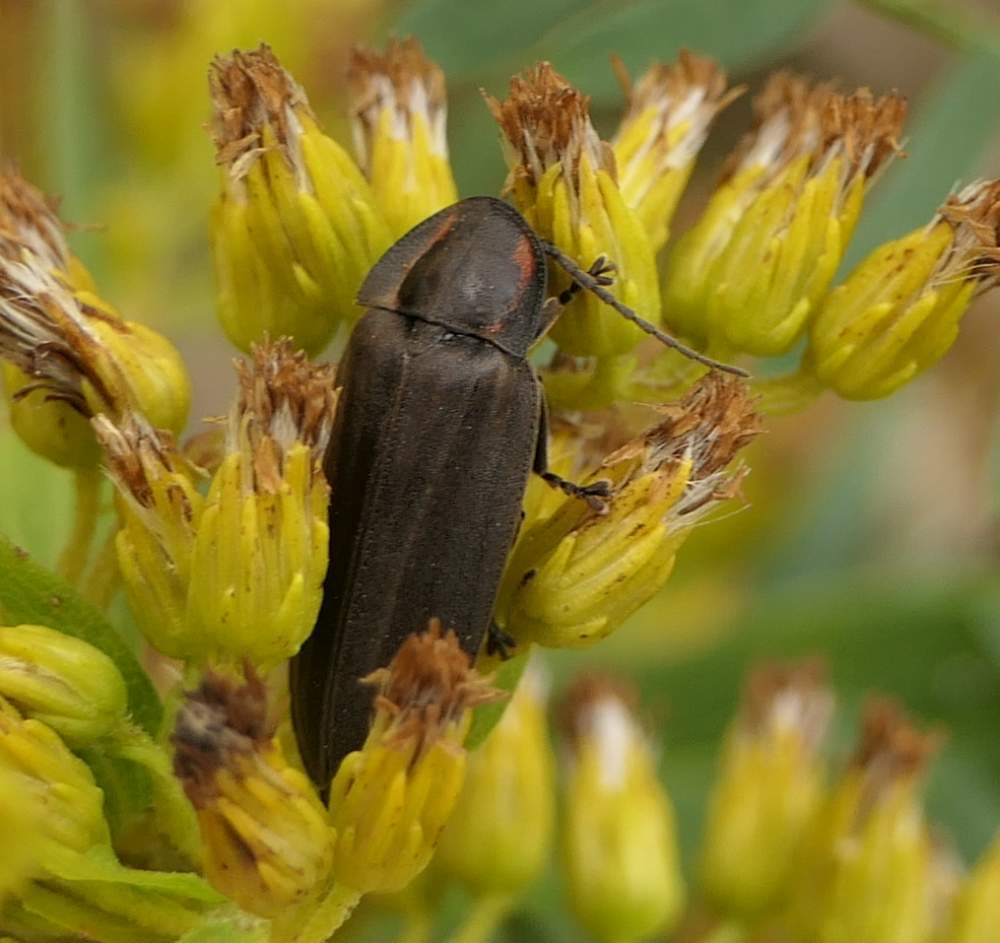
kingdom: Animalia
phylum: Arthropoda
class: Insecta
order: Coleoptera
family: Lampyridae
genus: Photinus
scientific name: Photinus corrusca
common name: Winter firefly
